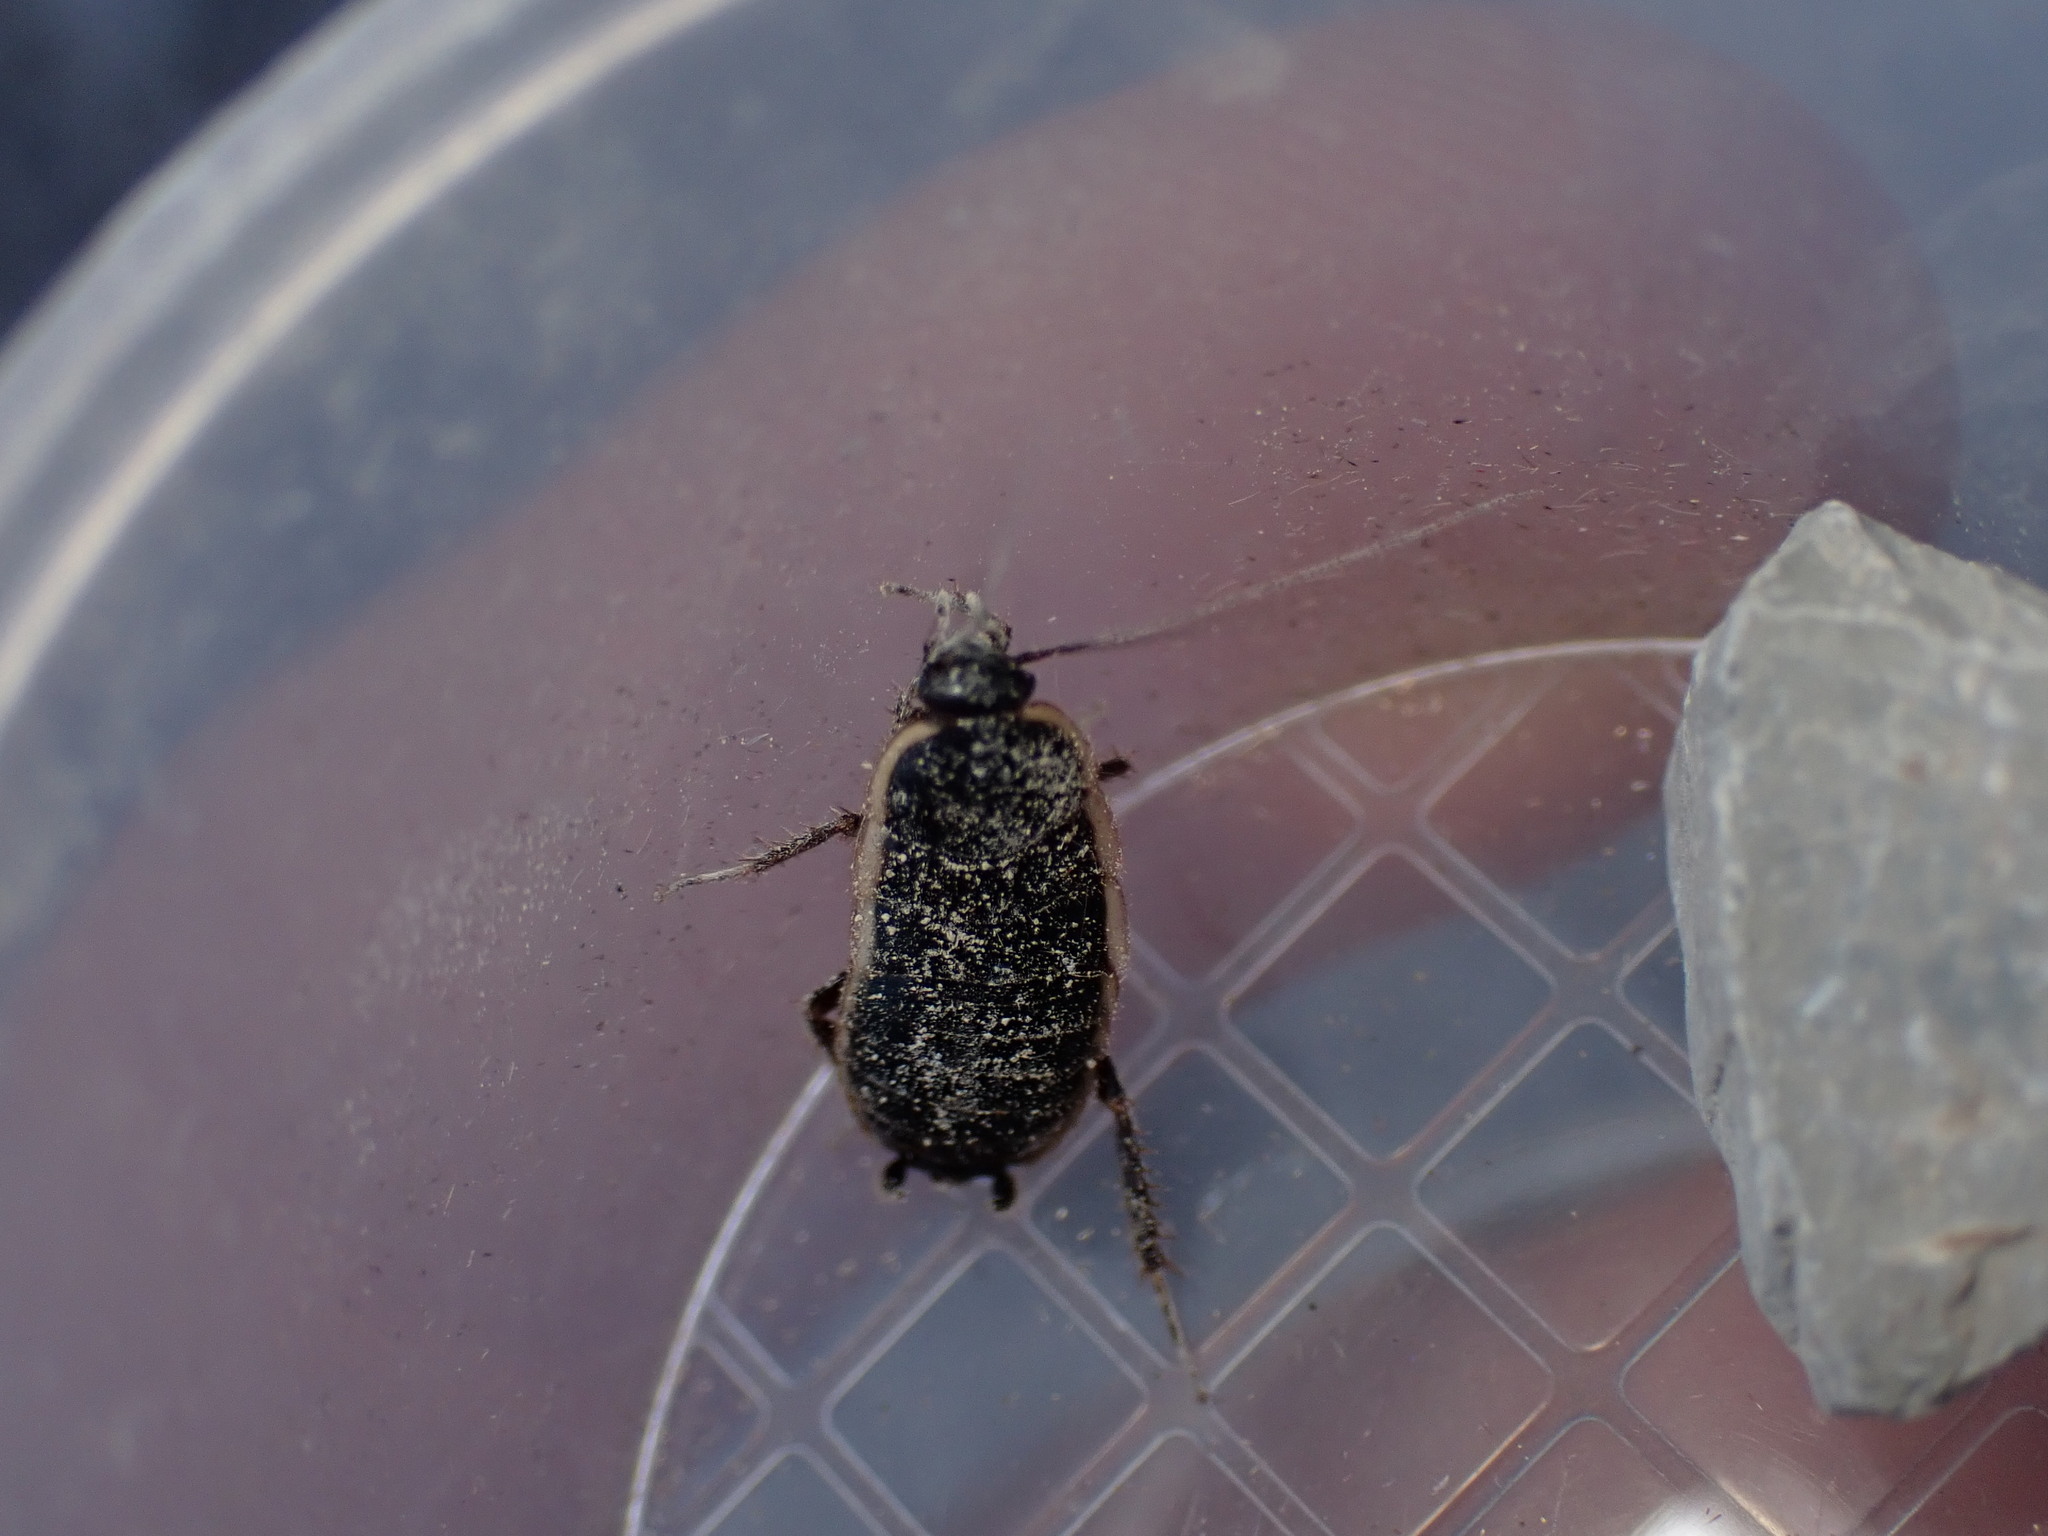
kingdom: Animalia
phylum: Arthropoda
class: Insecta
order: Blattodea
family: Ectobiidae
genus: Loboptera
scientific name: Loboptera decipiens
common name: Lobe-winged cockroach
